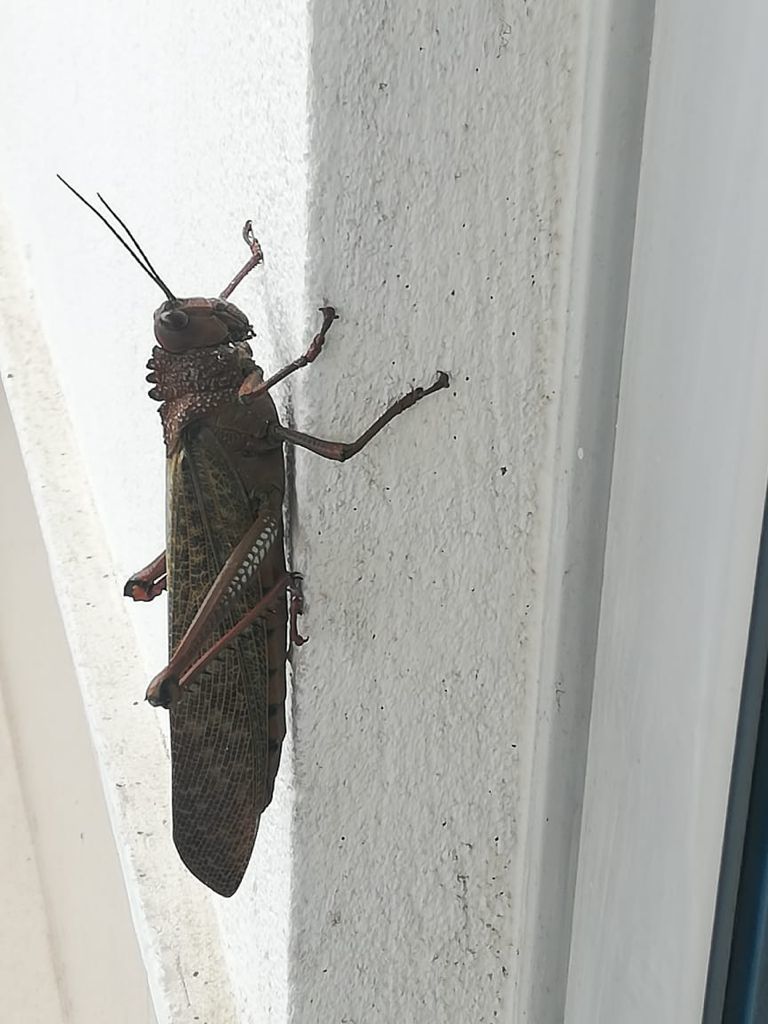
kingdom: Animalia
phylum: Arthropoda
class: Insecta
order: Orthoptera
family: Romaleidae
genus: Tropidacris
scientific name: Tropidacris cristata
